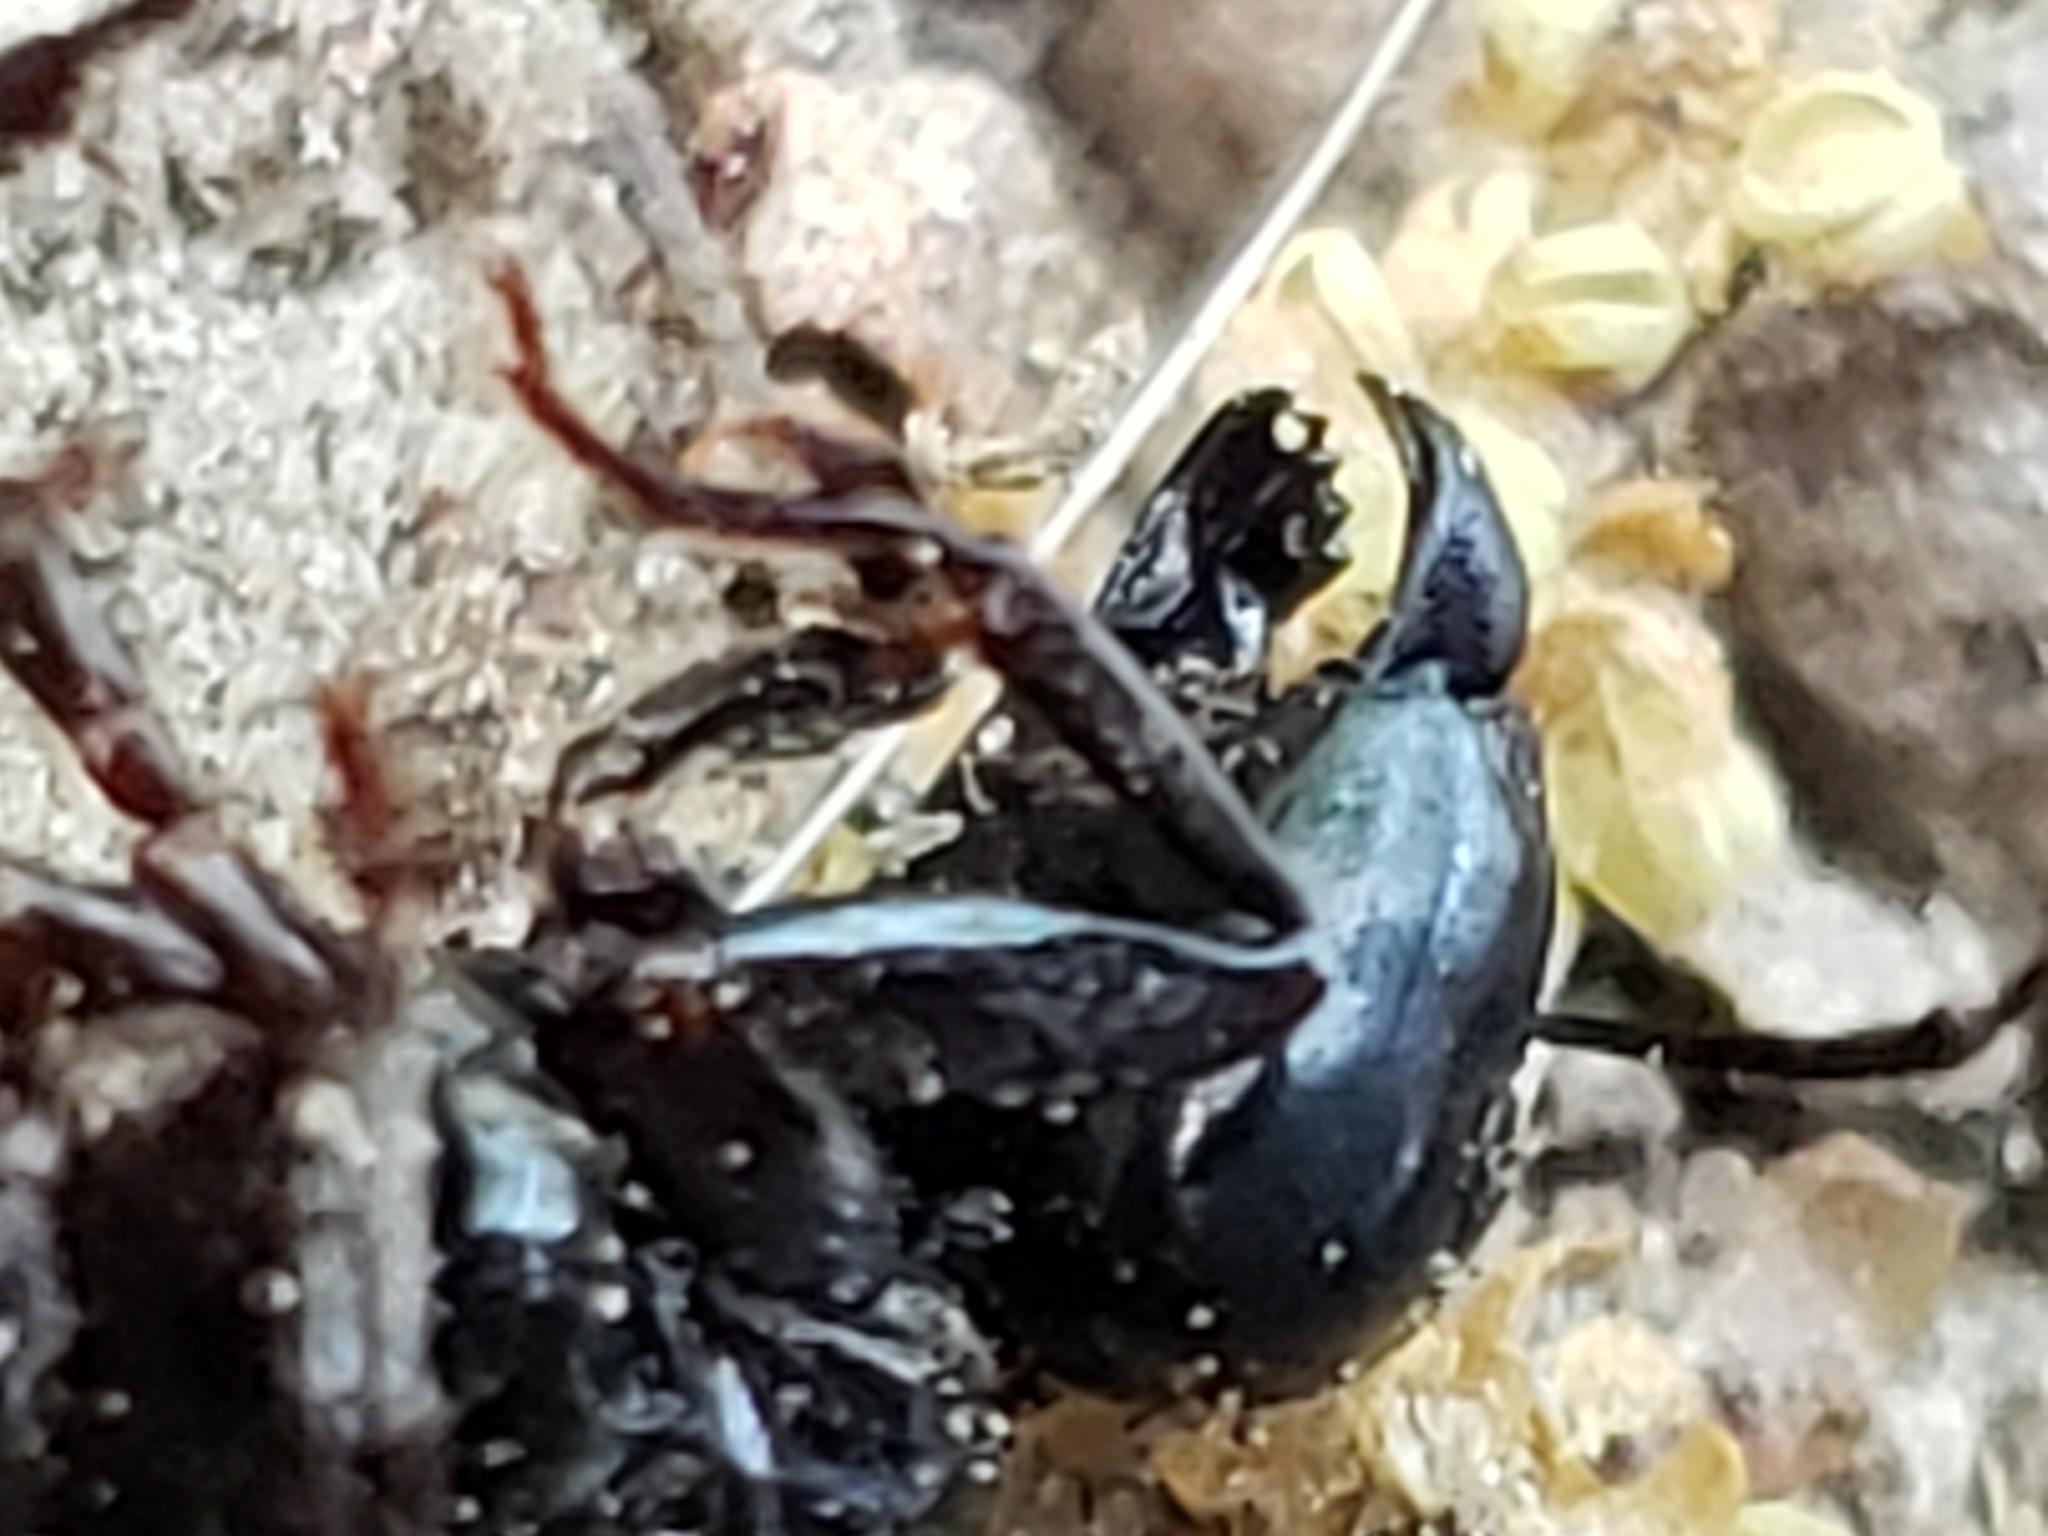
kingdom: Animalia
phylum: Arthropoda
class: Insecta
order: Hymenoptera
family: Formicidae
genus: Camponotus
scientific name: Camponotus pennsylvanicus
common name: Black carpenter ant
